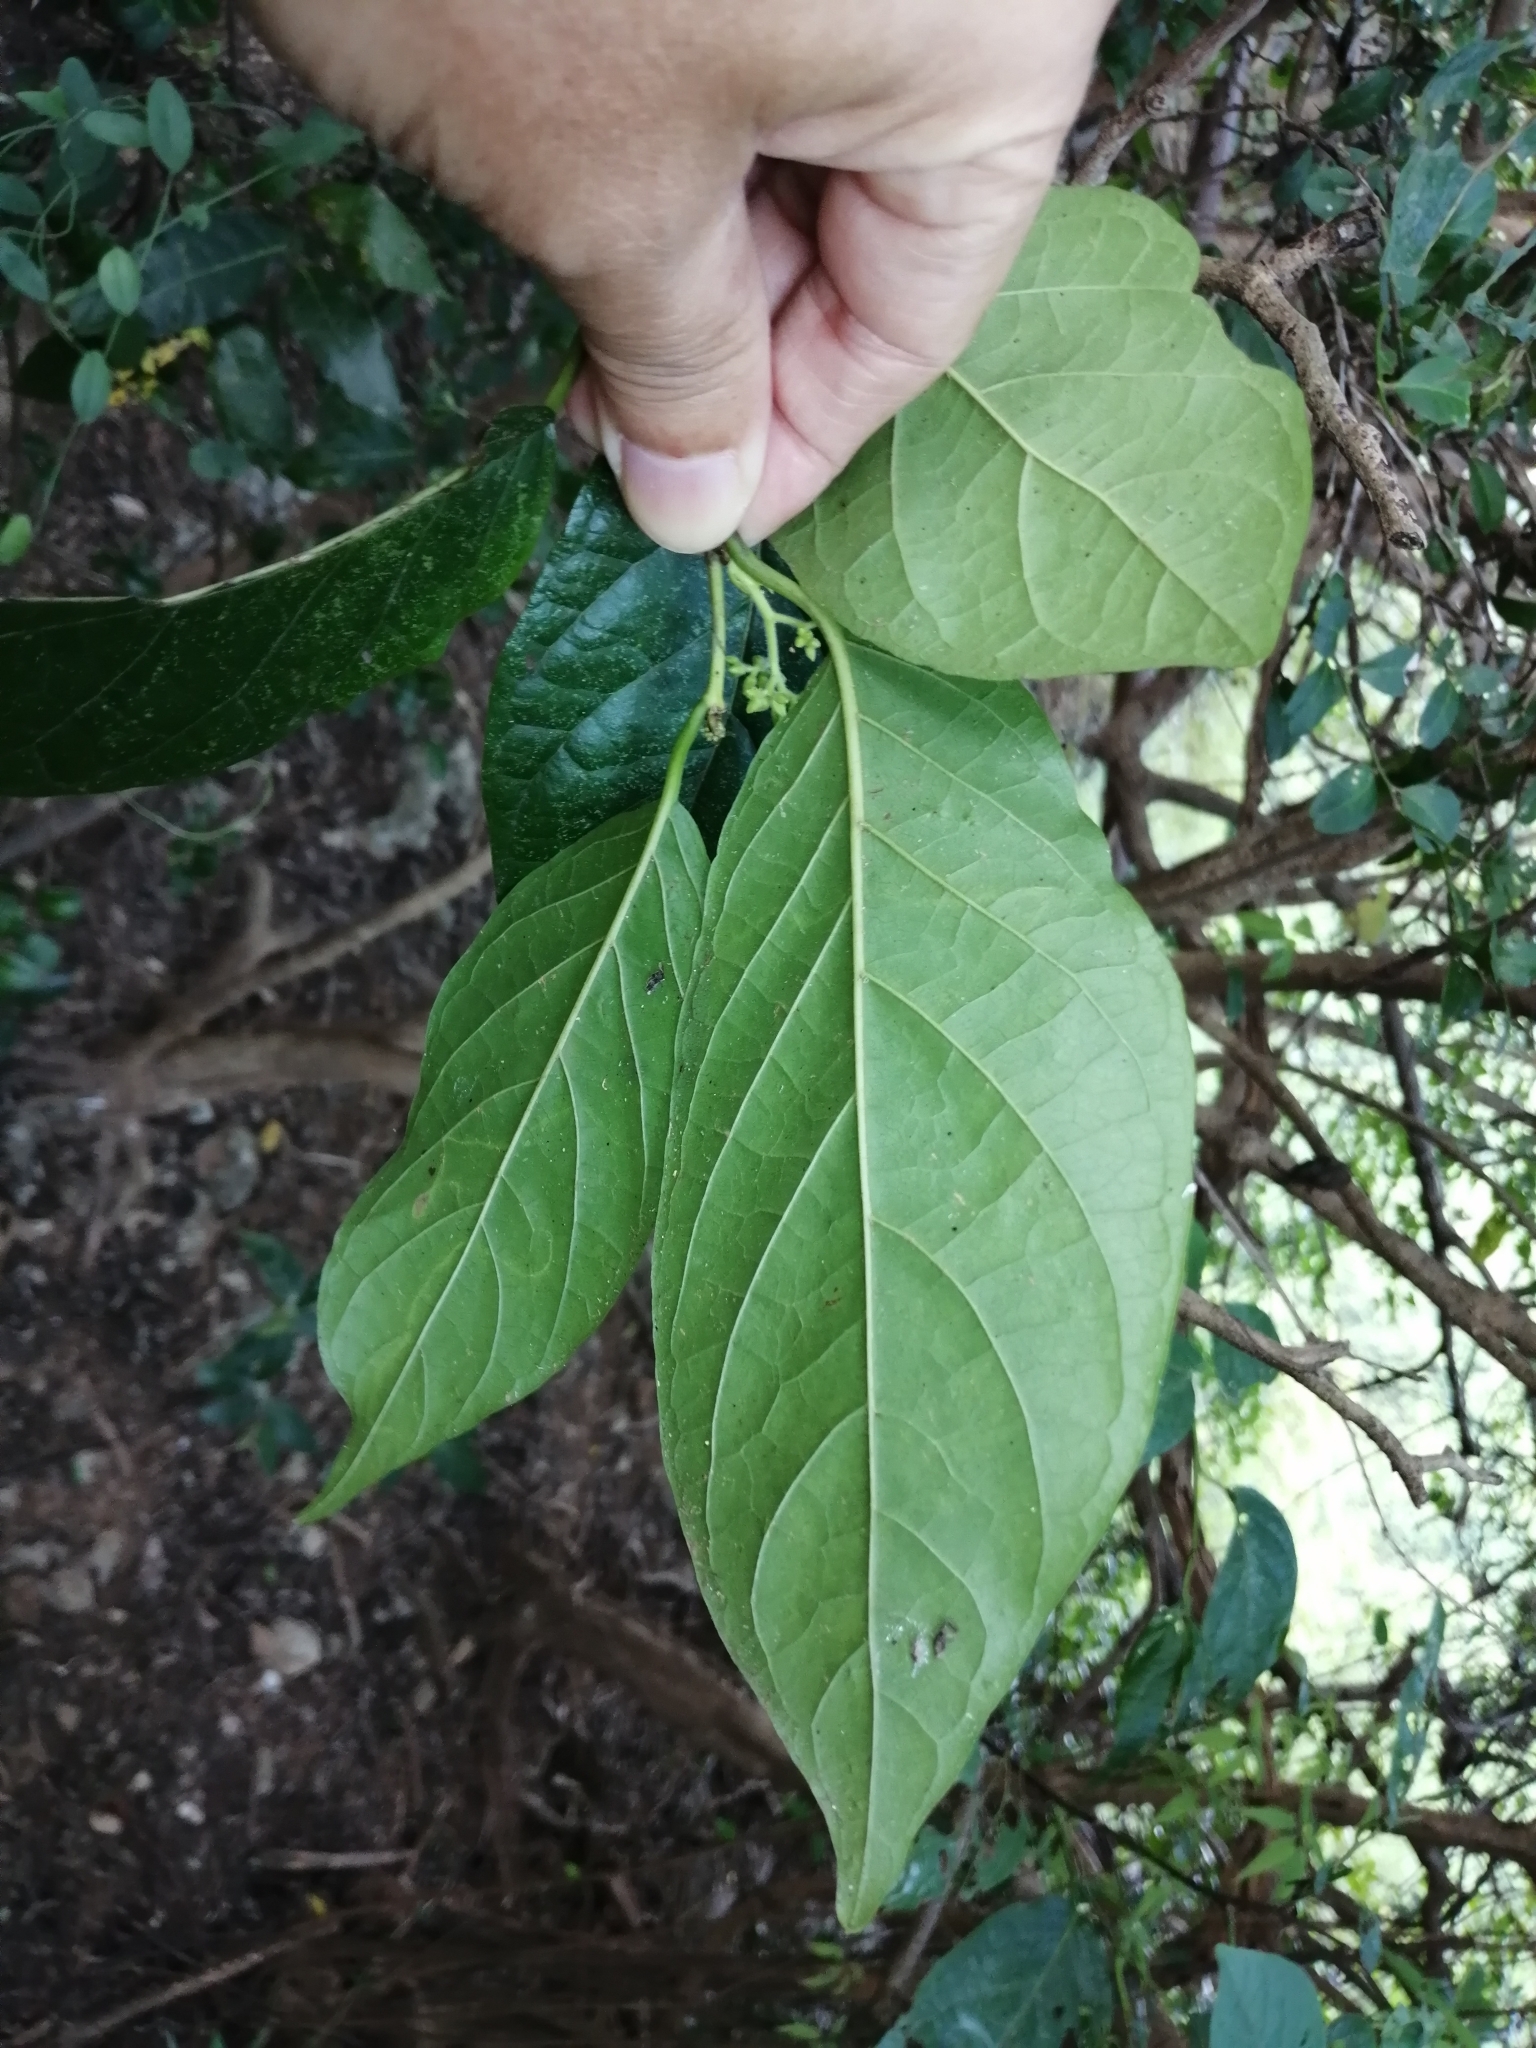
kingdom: Plantae
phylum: Tracheophyta
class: Magnoliopsida
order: Boraginales
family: Ehretiaceae
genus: Ehretia
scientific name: Ehretia resinosa
